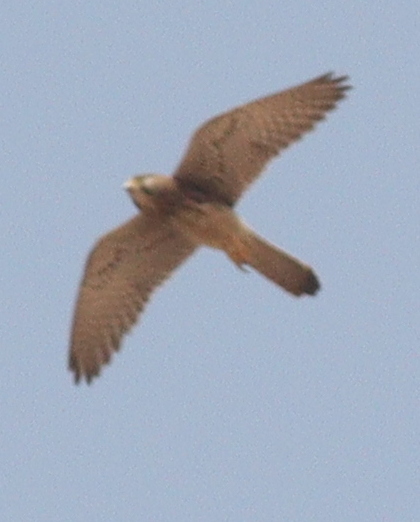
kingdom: Animalia
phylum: Chordata
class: Aves
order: Falconiformes
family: Falconidae
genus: Falco
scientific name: Falco tinnunculus
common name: Common kestrel
